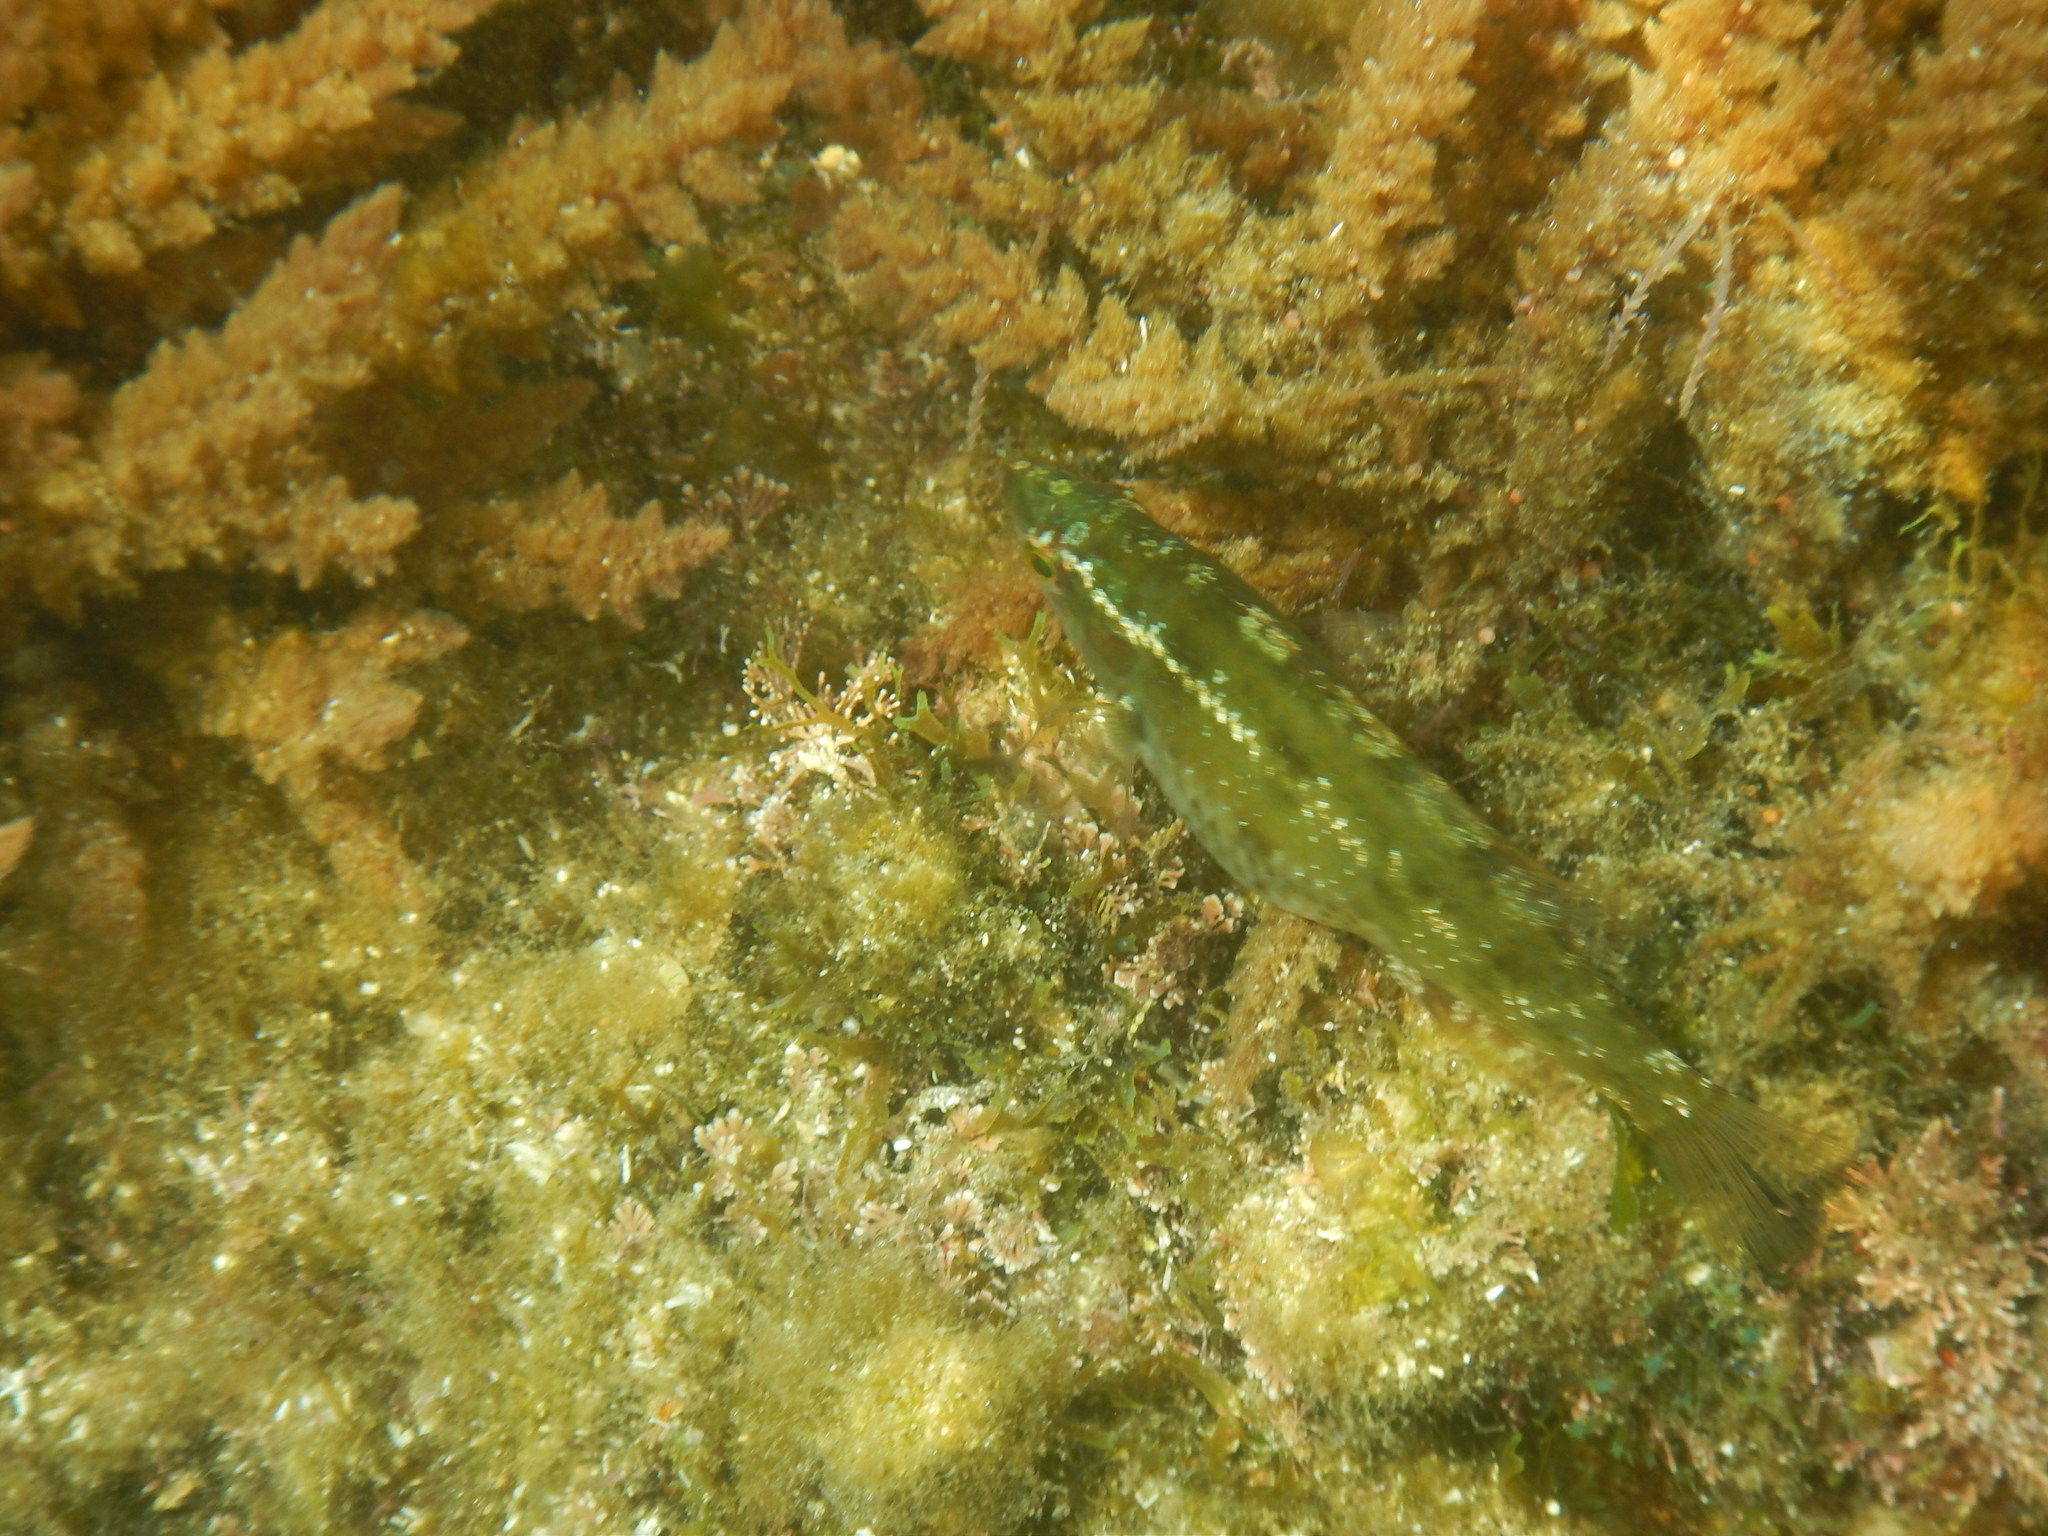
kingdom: Animalia
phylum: Chordata
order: Perciformes
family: Labridae
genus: Symphodus
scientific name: Symphodus ocellatus
